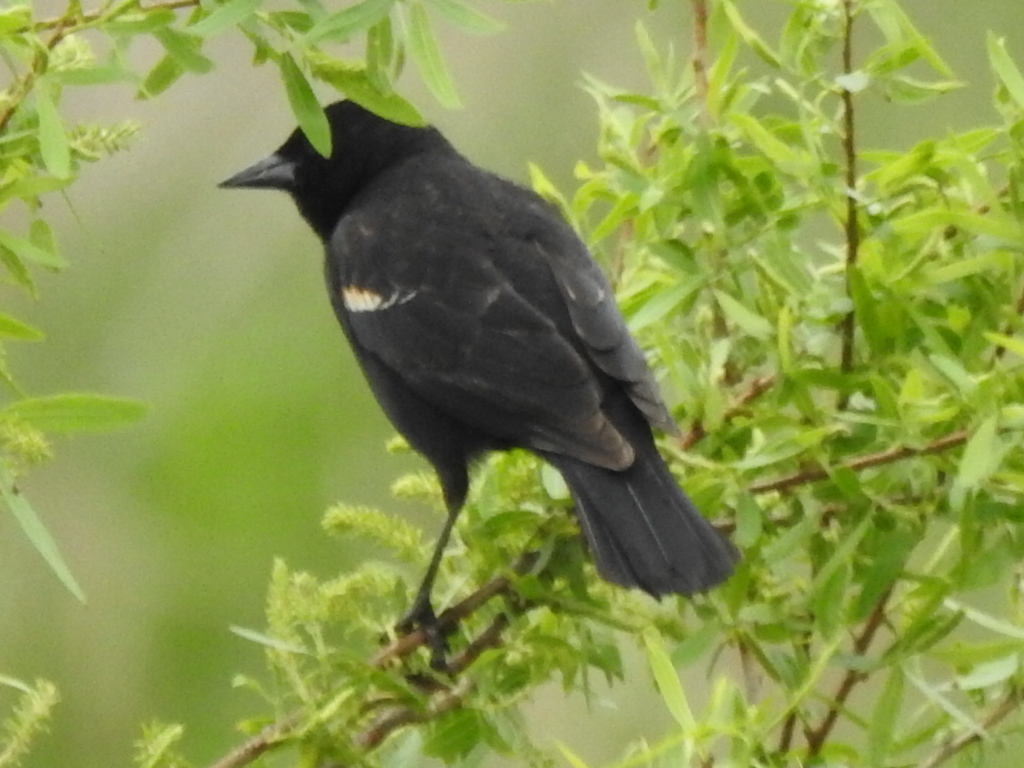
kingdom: Animalia
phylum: Chordata
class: Aves
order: Passeriformes
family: Icteridae
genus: Agelaius
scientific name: Agelaius phoeniceus
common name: Red-winged blackbird
